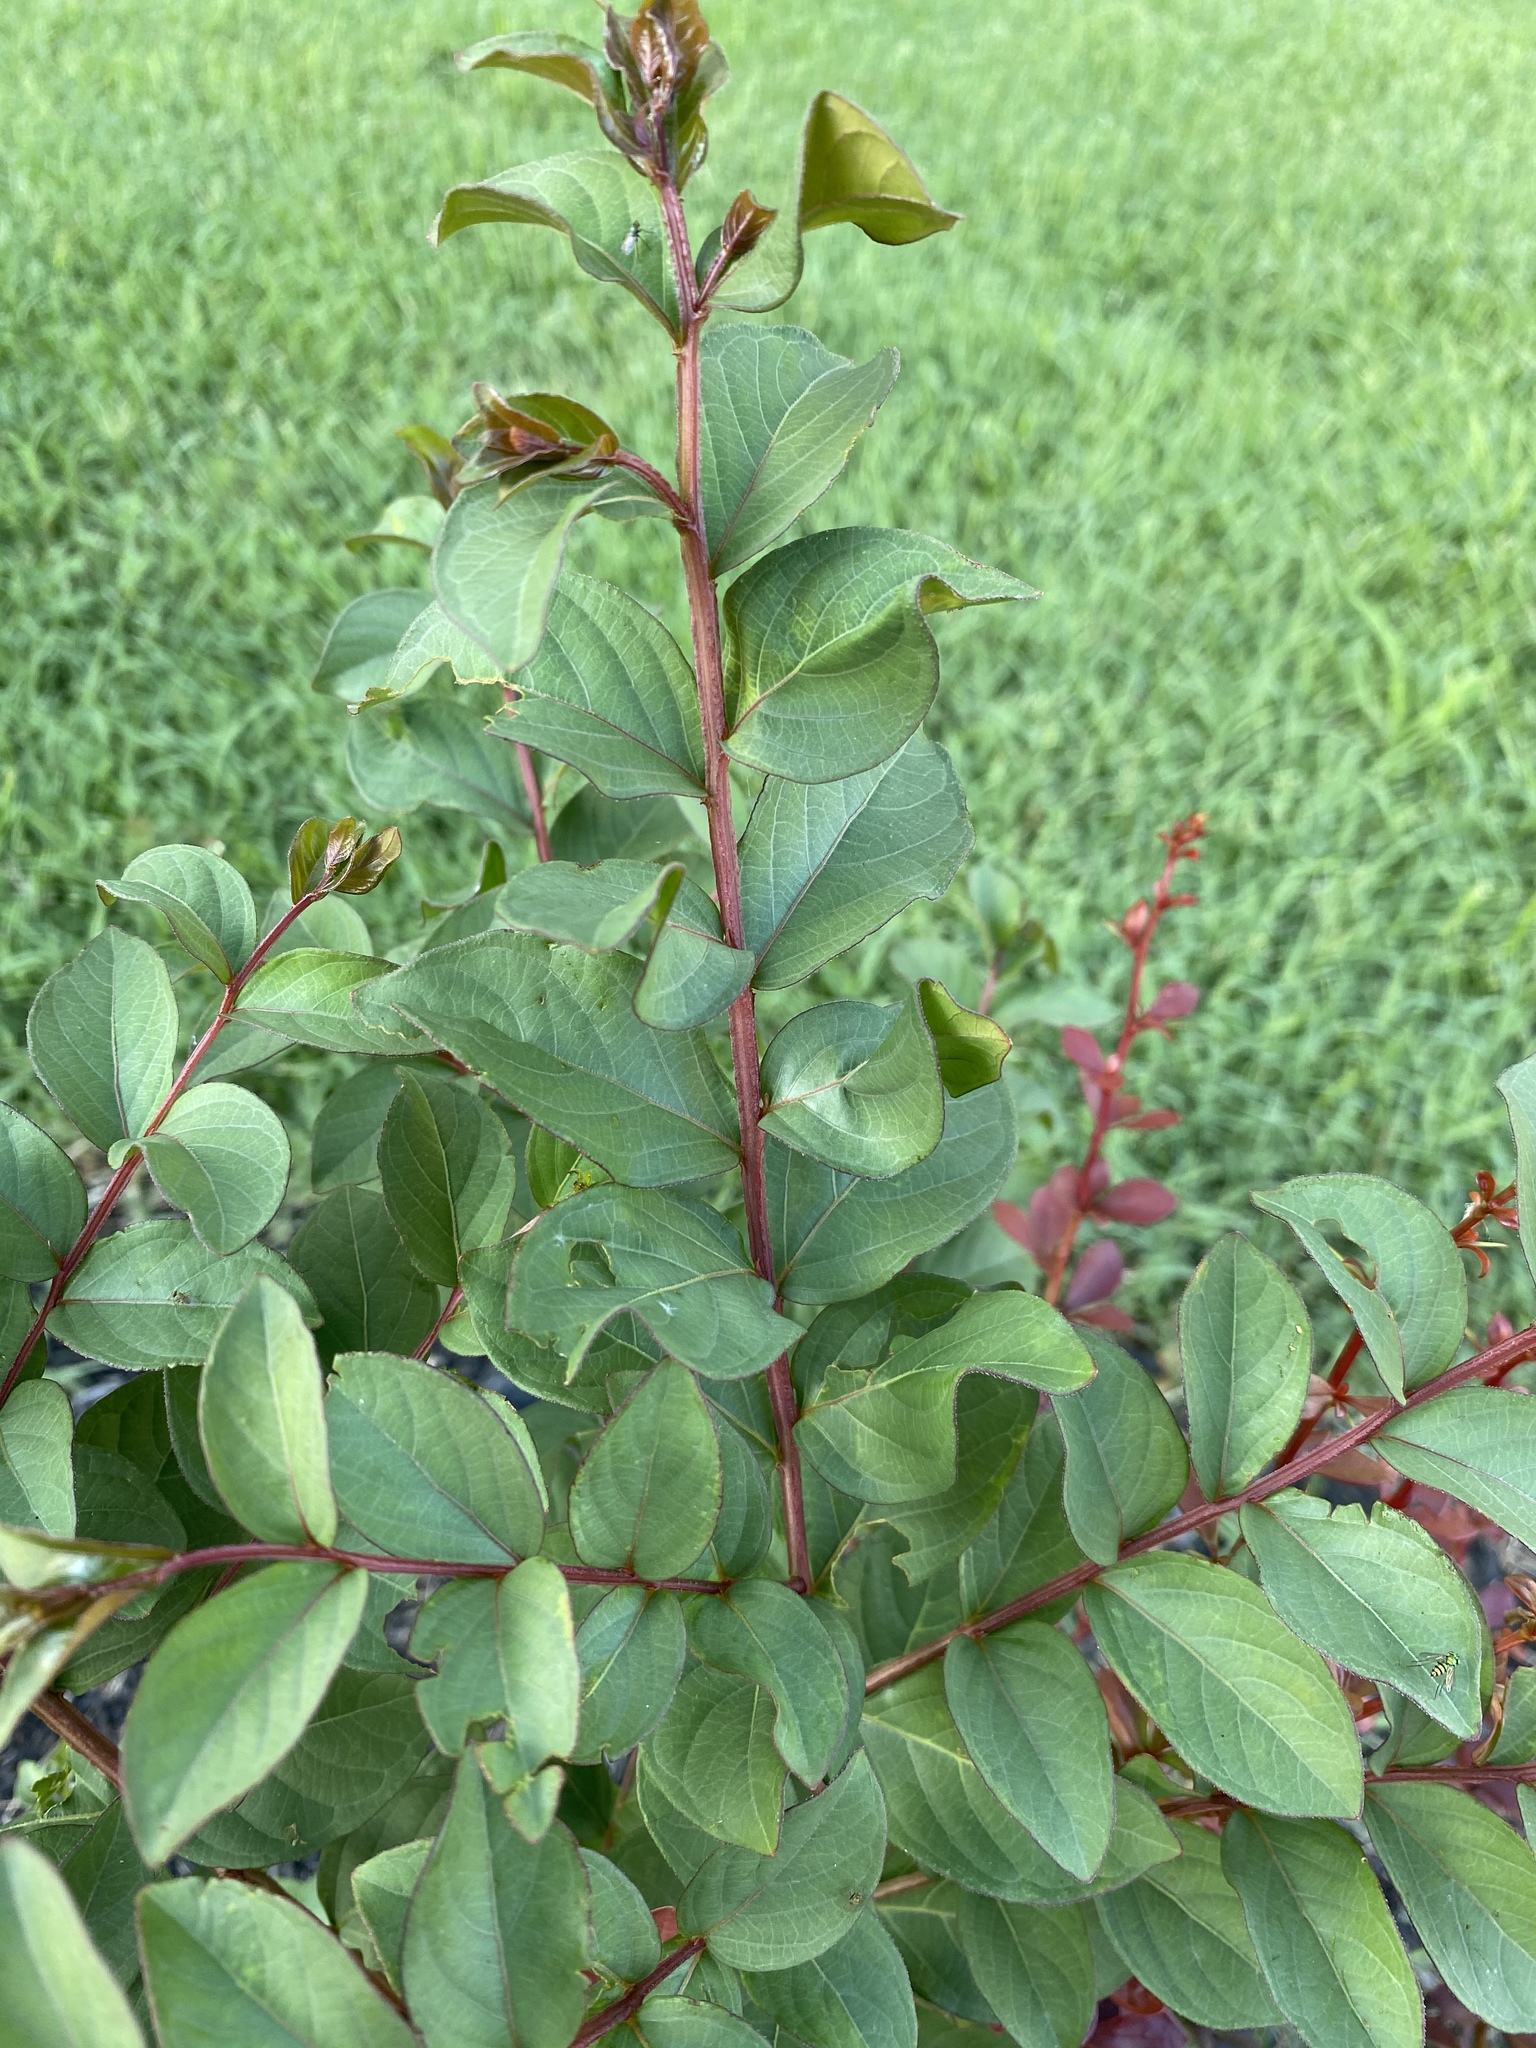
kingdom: Plantae
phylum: Tracheophyta
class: Magnoliopsida
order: Myrtales
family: Lythraceae
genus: Lagerstroemia
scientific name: Lagerstroemia
